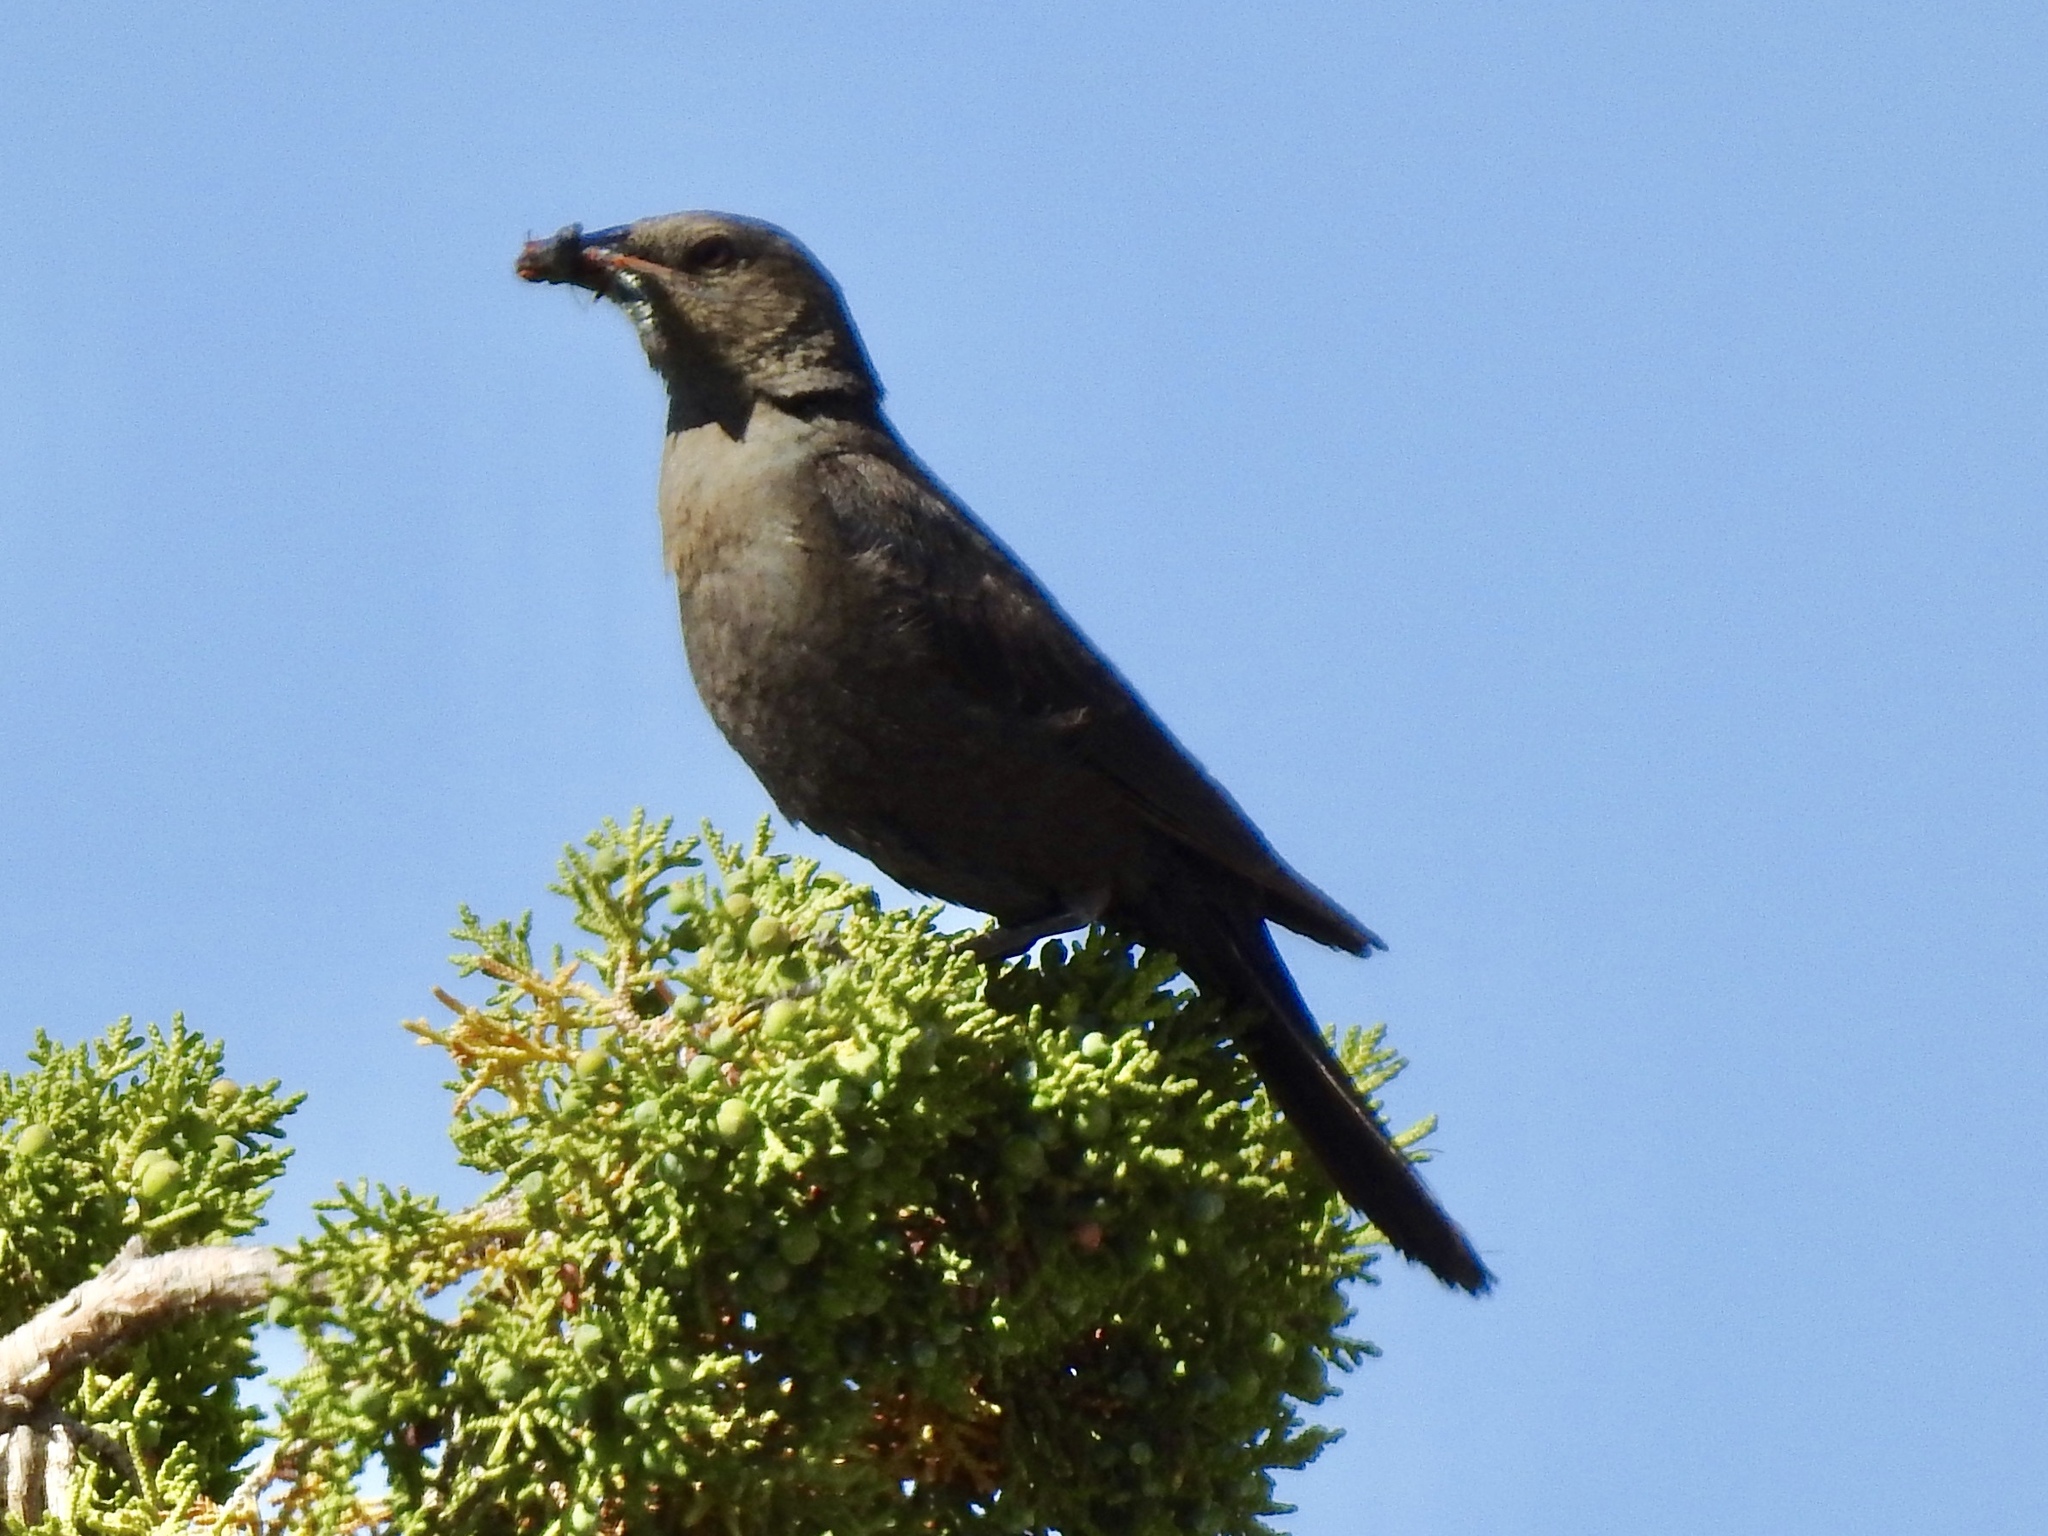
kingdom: Animalia
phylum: Chordata
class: Aves
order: Passeriformes
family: Icteridae
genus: Euphagus
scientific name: Euphagus cyanocephalus
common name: Brewer's blackbird
